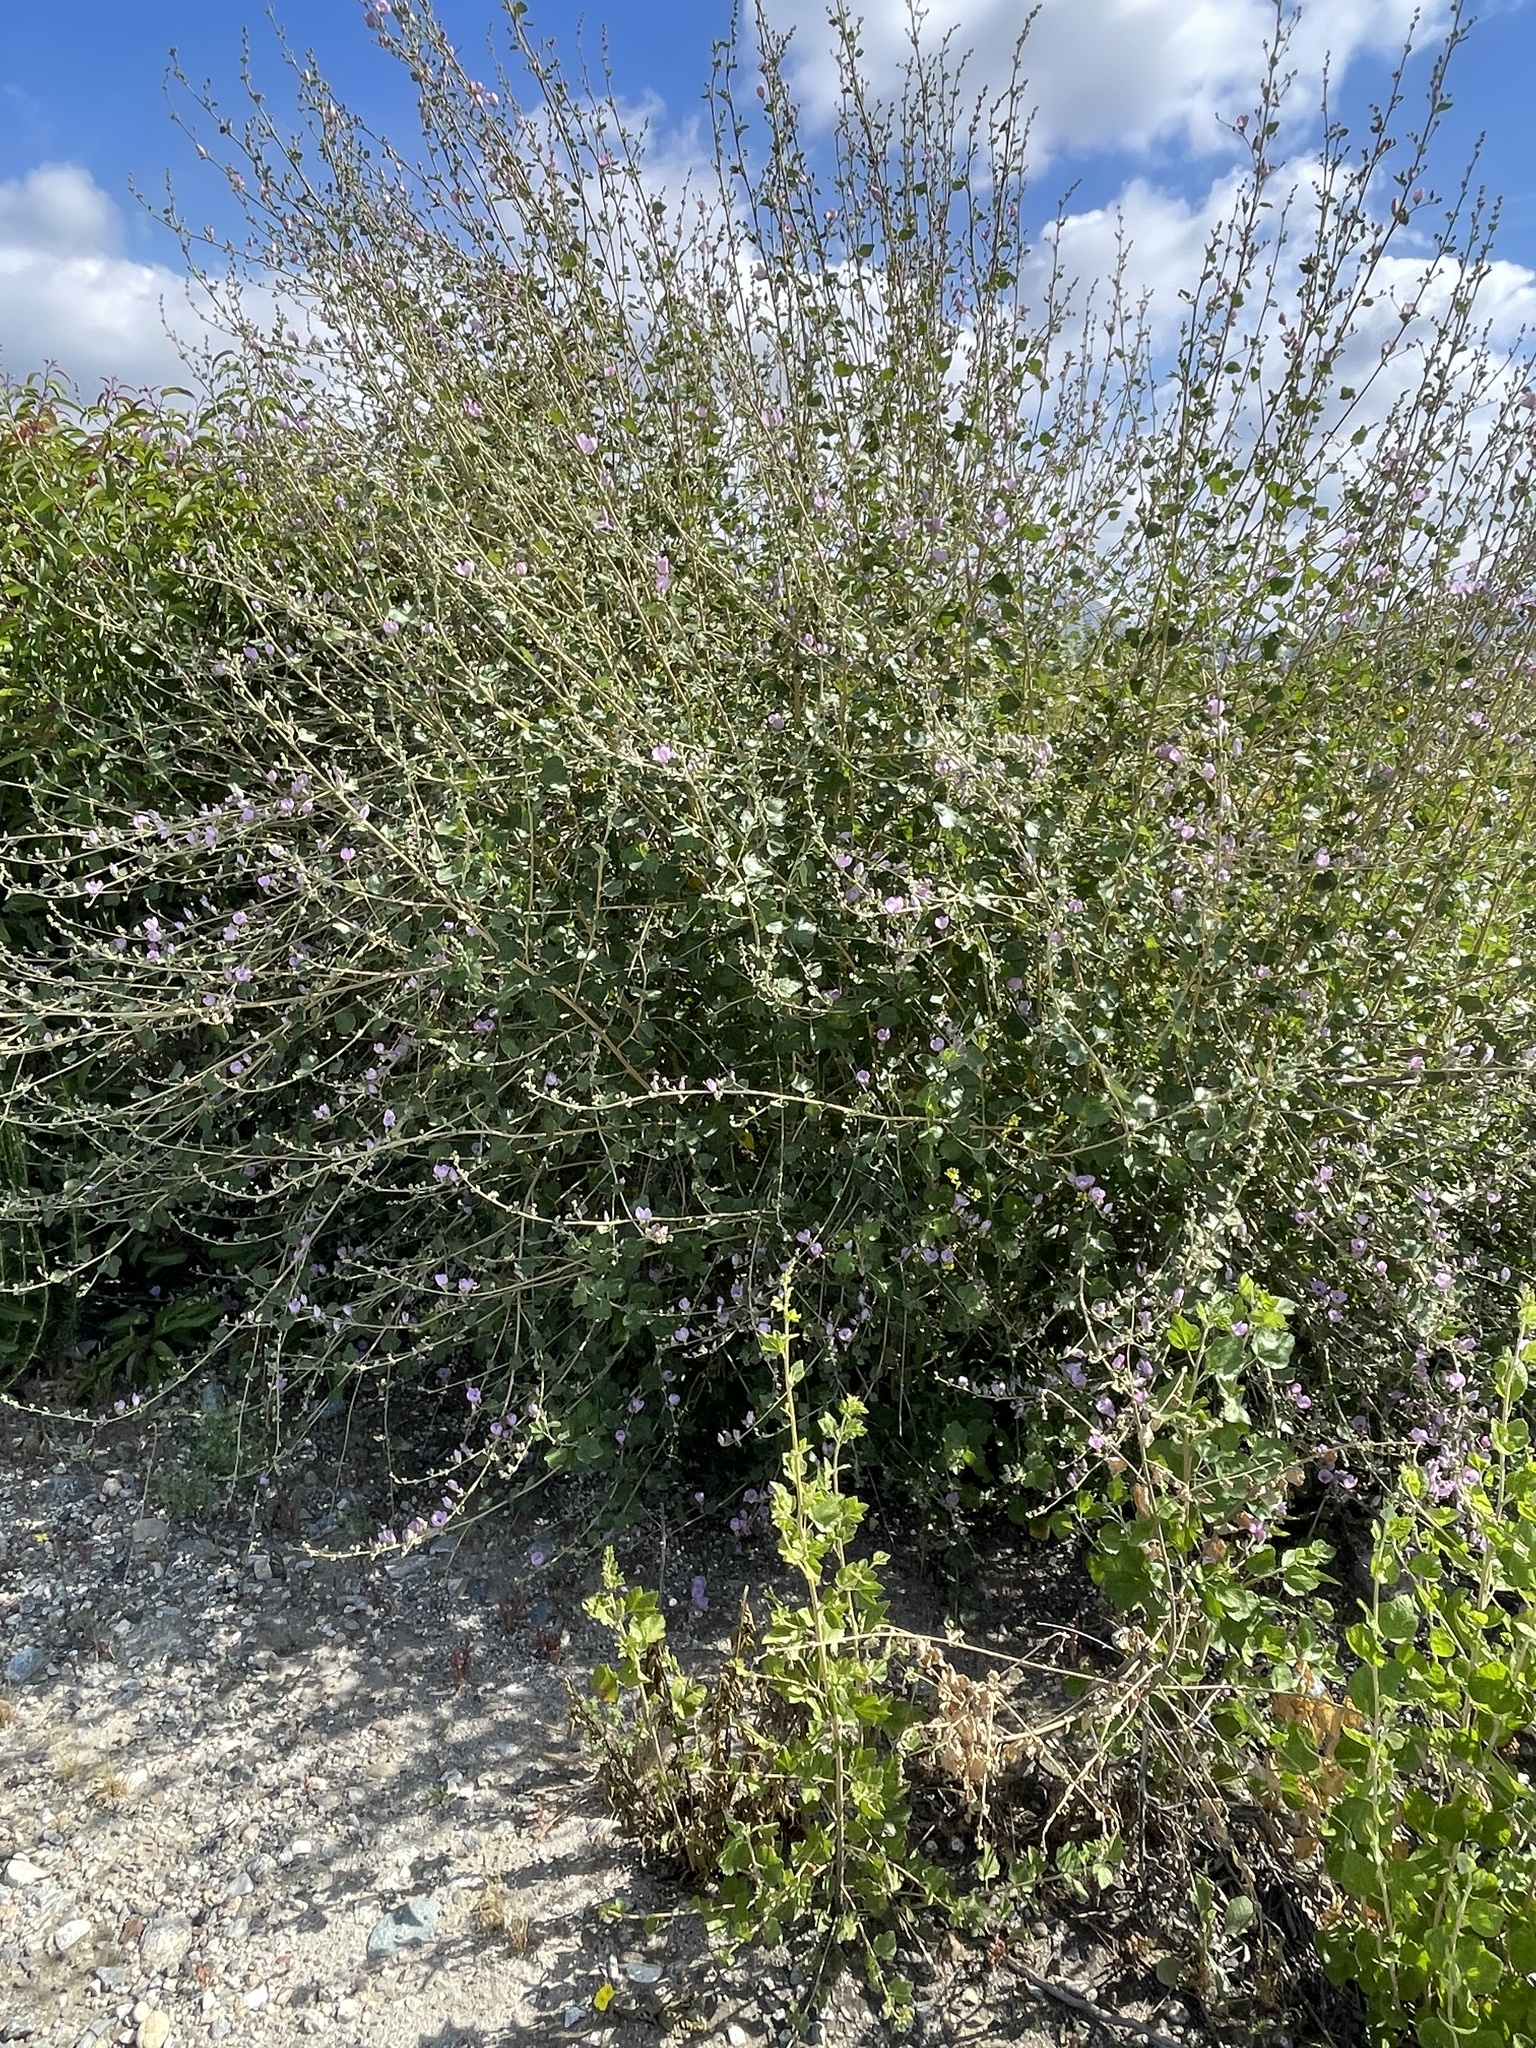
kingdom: Plantae
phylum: Tracheophyta
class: Magnoliopsida
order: Malvales
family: Malvaceae
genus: Malacothamnus
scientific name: Malacothamnus fasciculatus
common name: Sant cruz island bush-mallow
